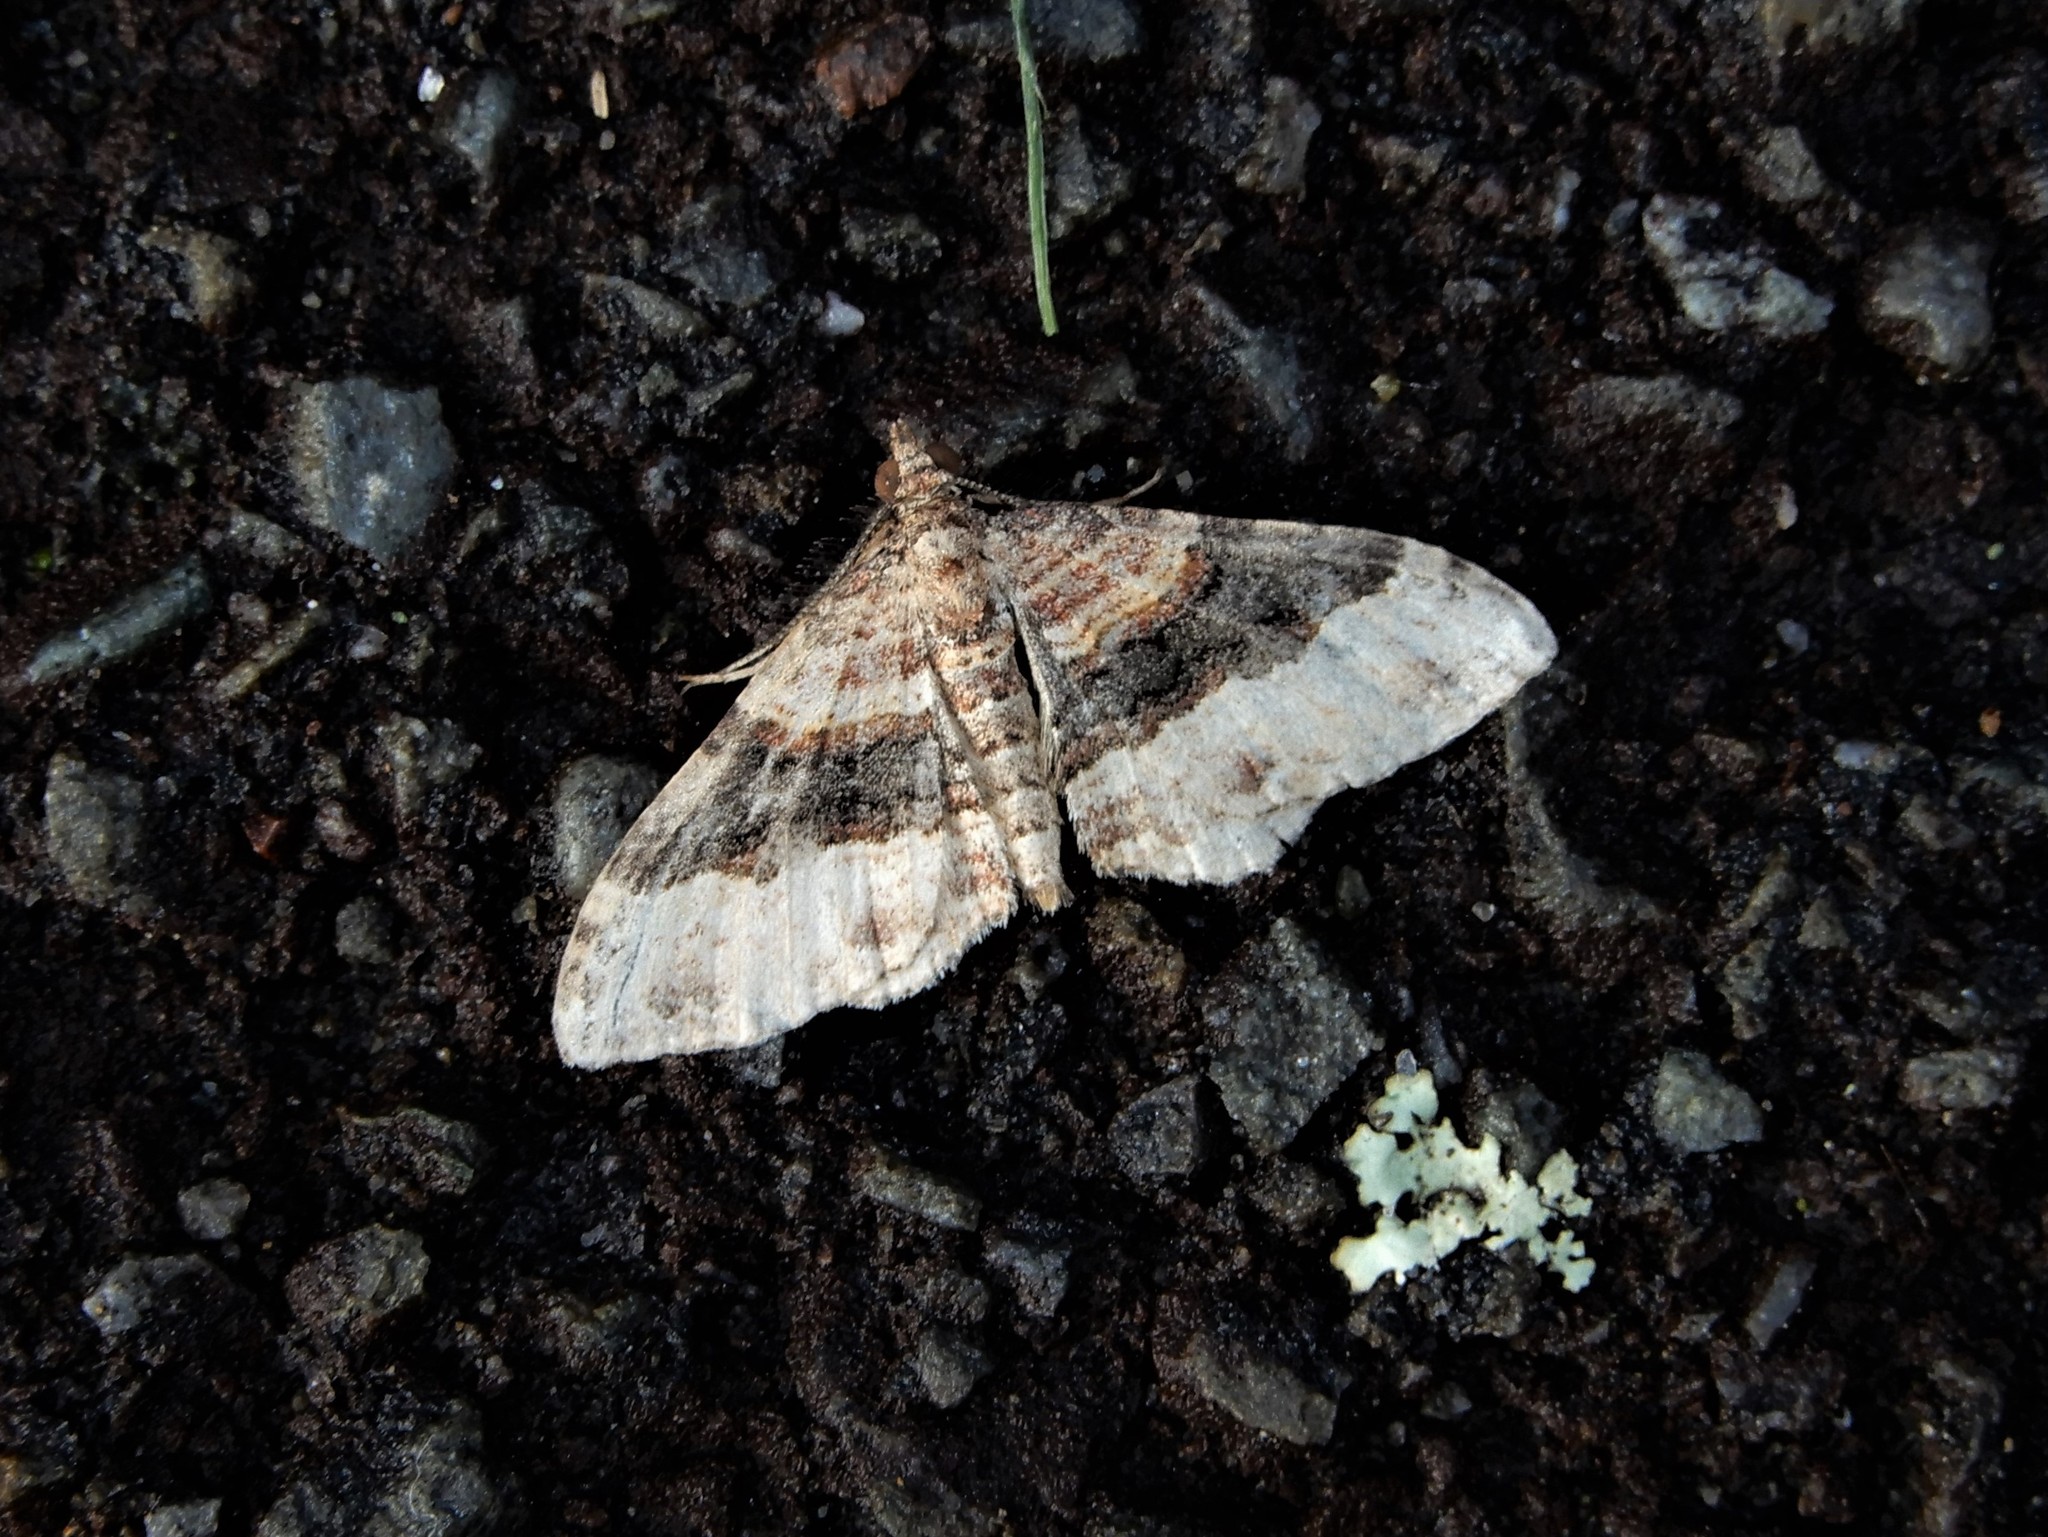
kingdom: Animalia
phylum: Arthropoda
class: Insecta
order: Lepidoptera
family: Geometridae
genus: Epyaxa
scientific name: Epyaxa lucidata
